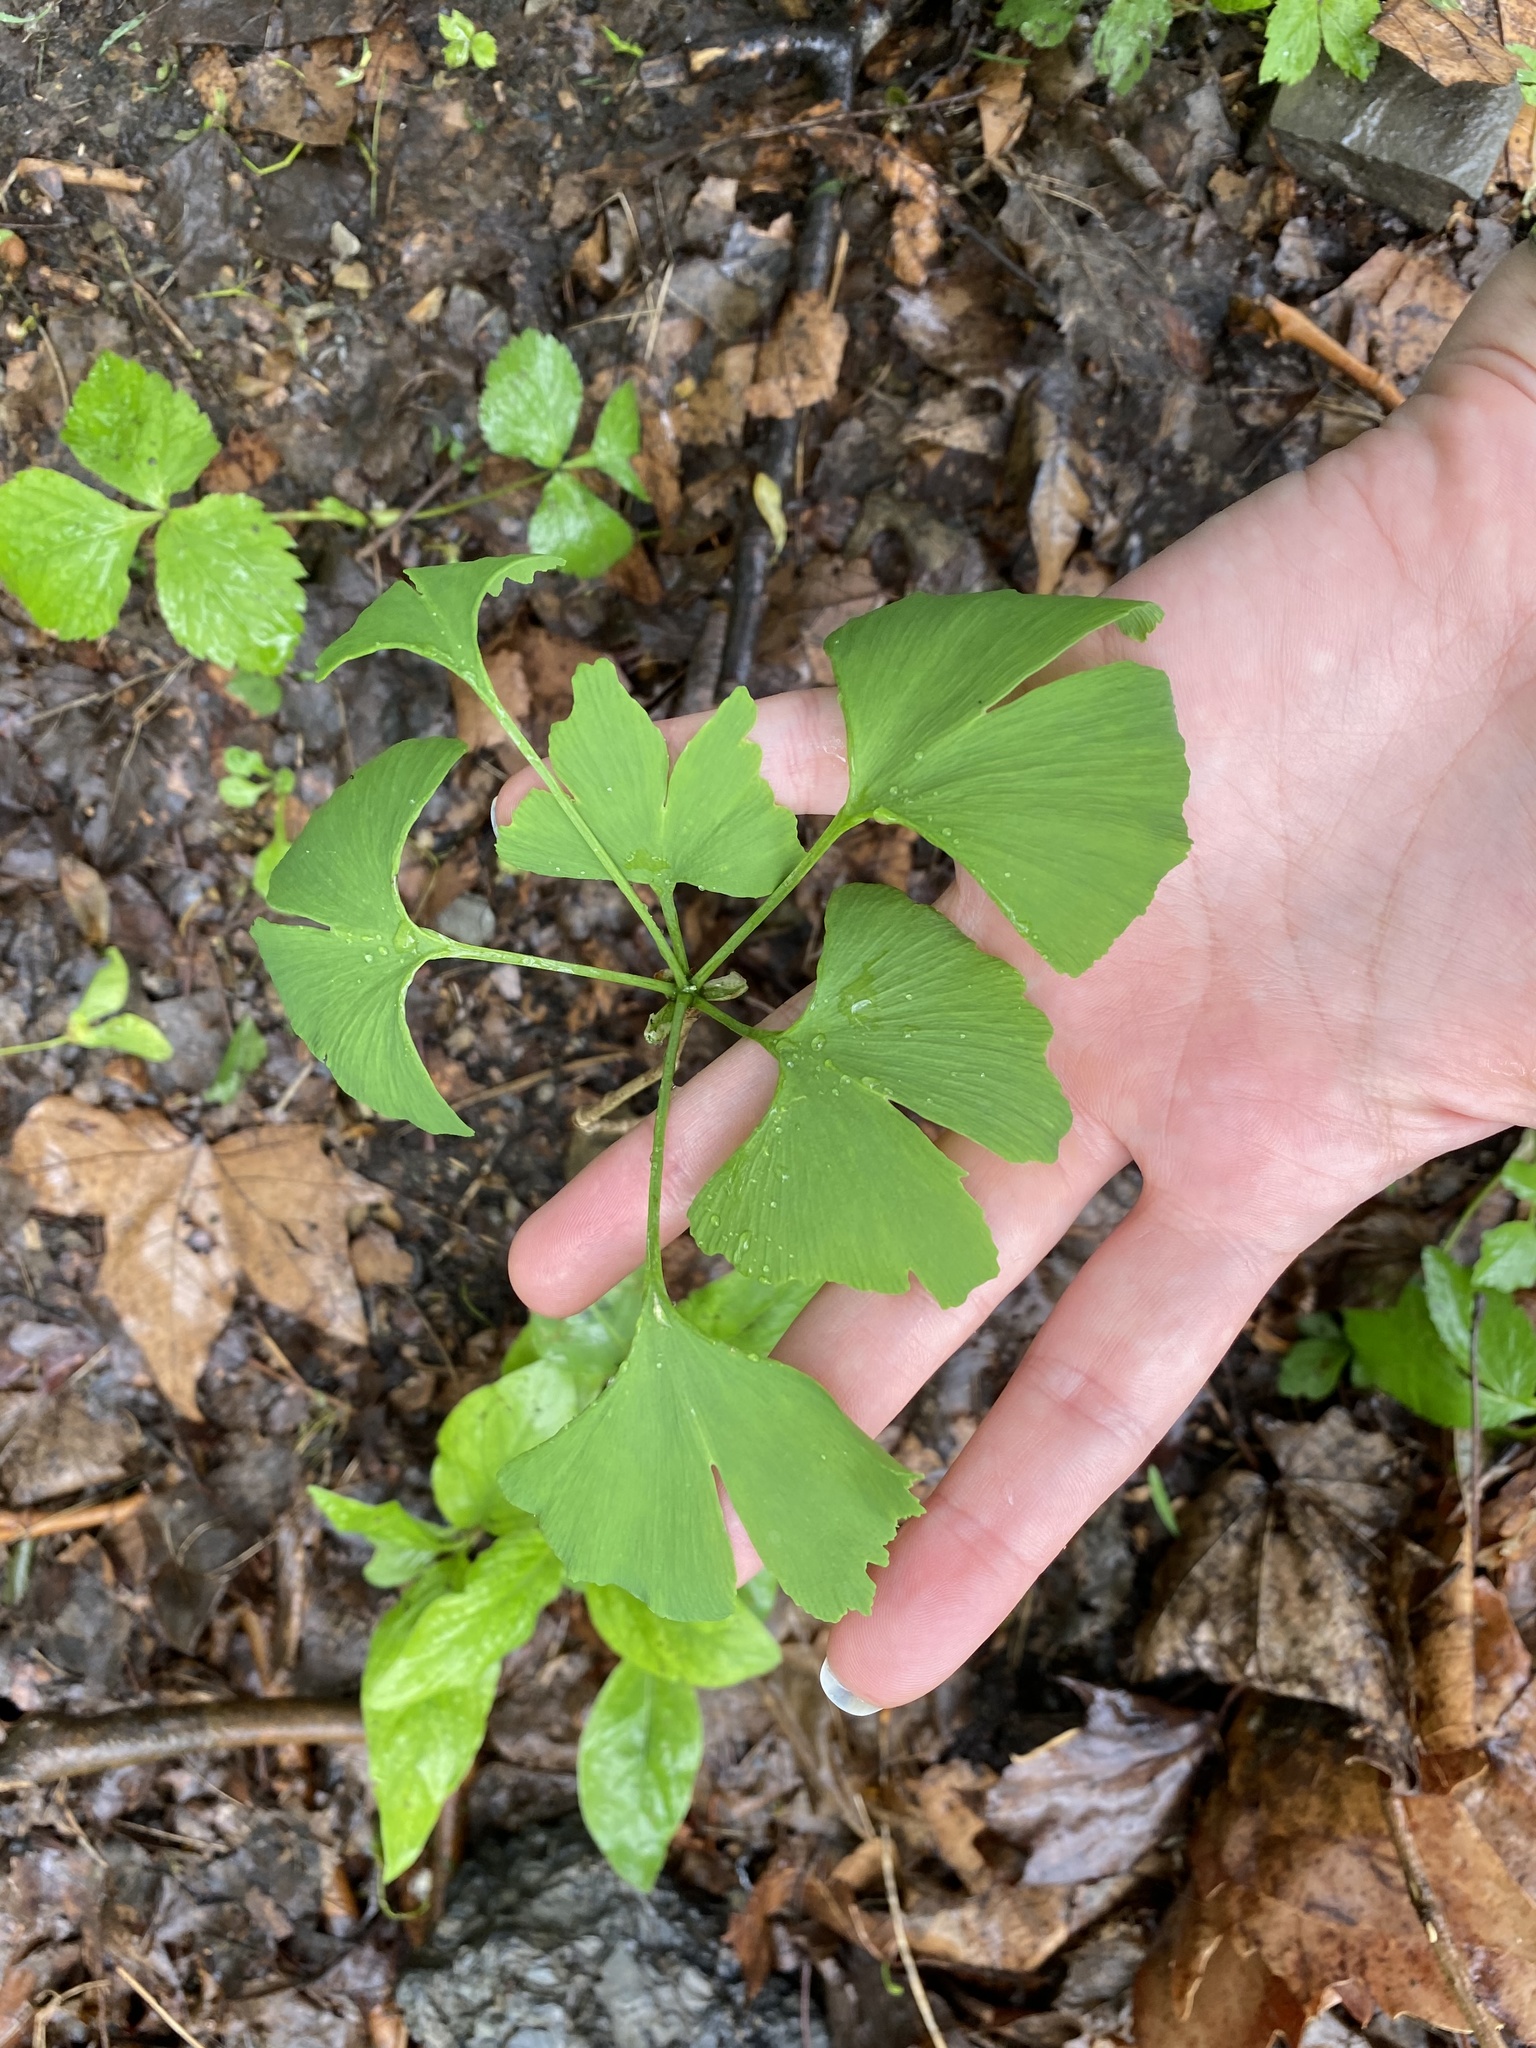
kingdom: Plantae
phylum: Tracheophyta
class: Ginkgoopsida
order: Ginkgoales
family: Ginkgoaceae
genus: Ginkgo
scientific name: Ginkgo biloba
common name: Ginkgo
